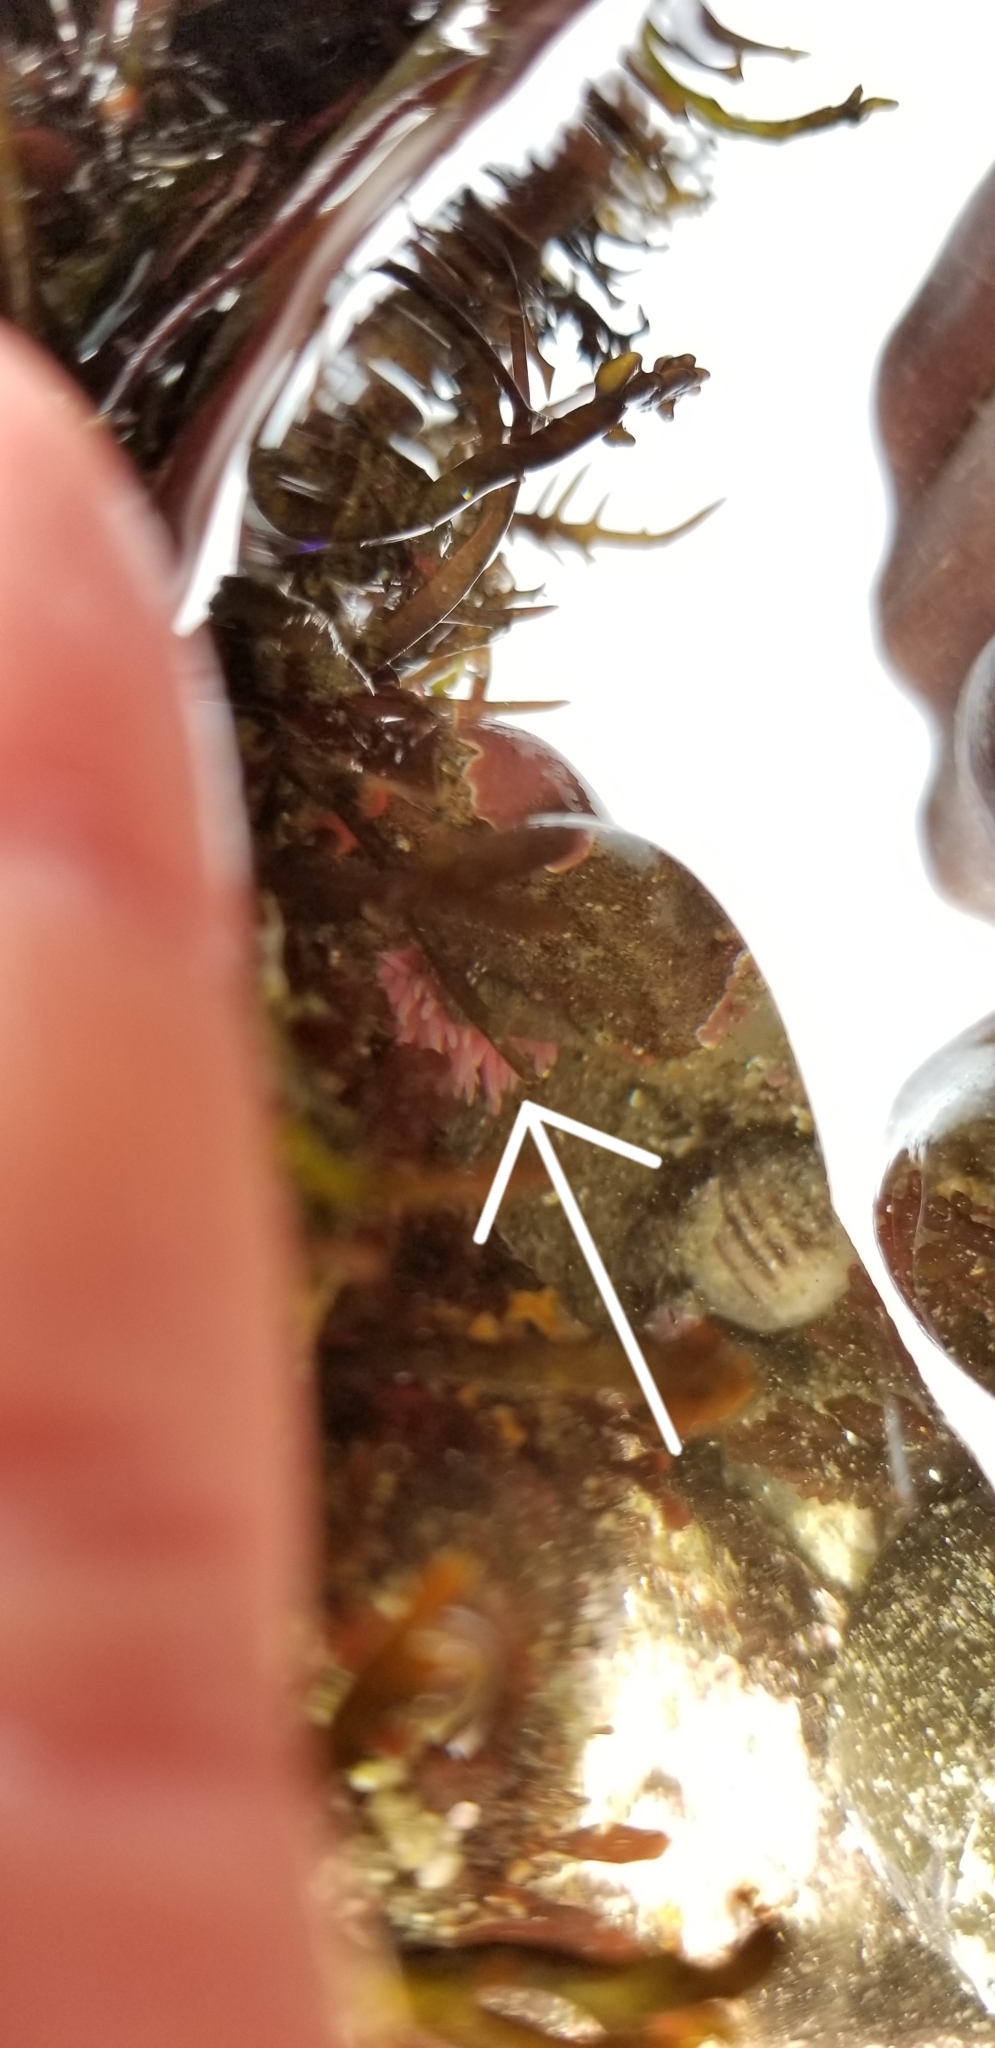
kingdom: Animalia
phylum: Mollusca
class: Gastropoda
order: Nudibranchia
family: Goniodorididae
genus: Okenia
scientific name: Okenia
